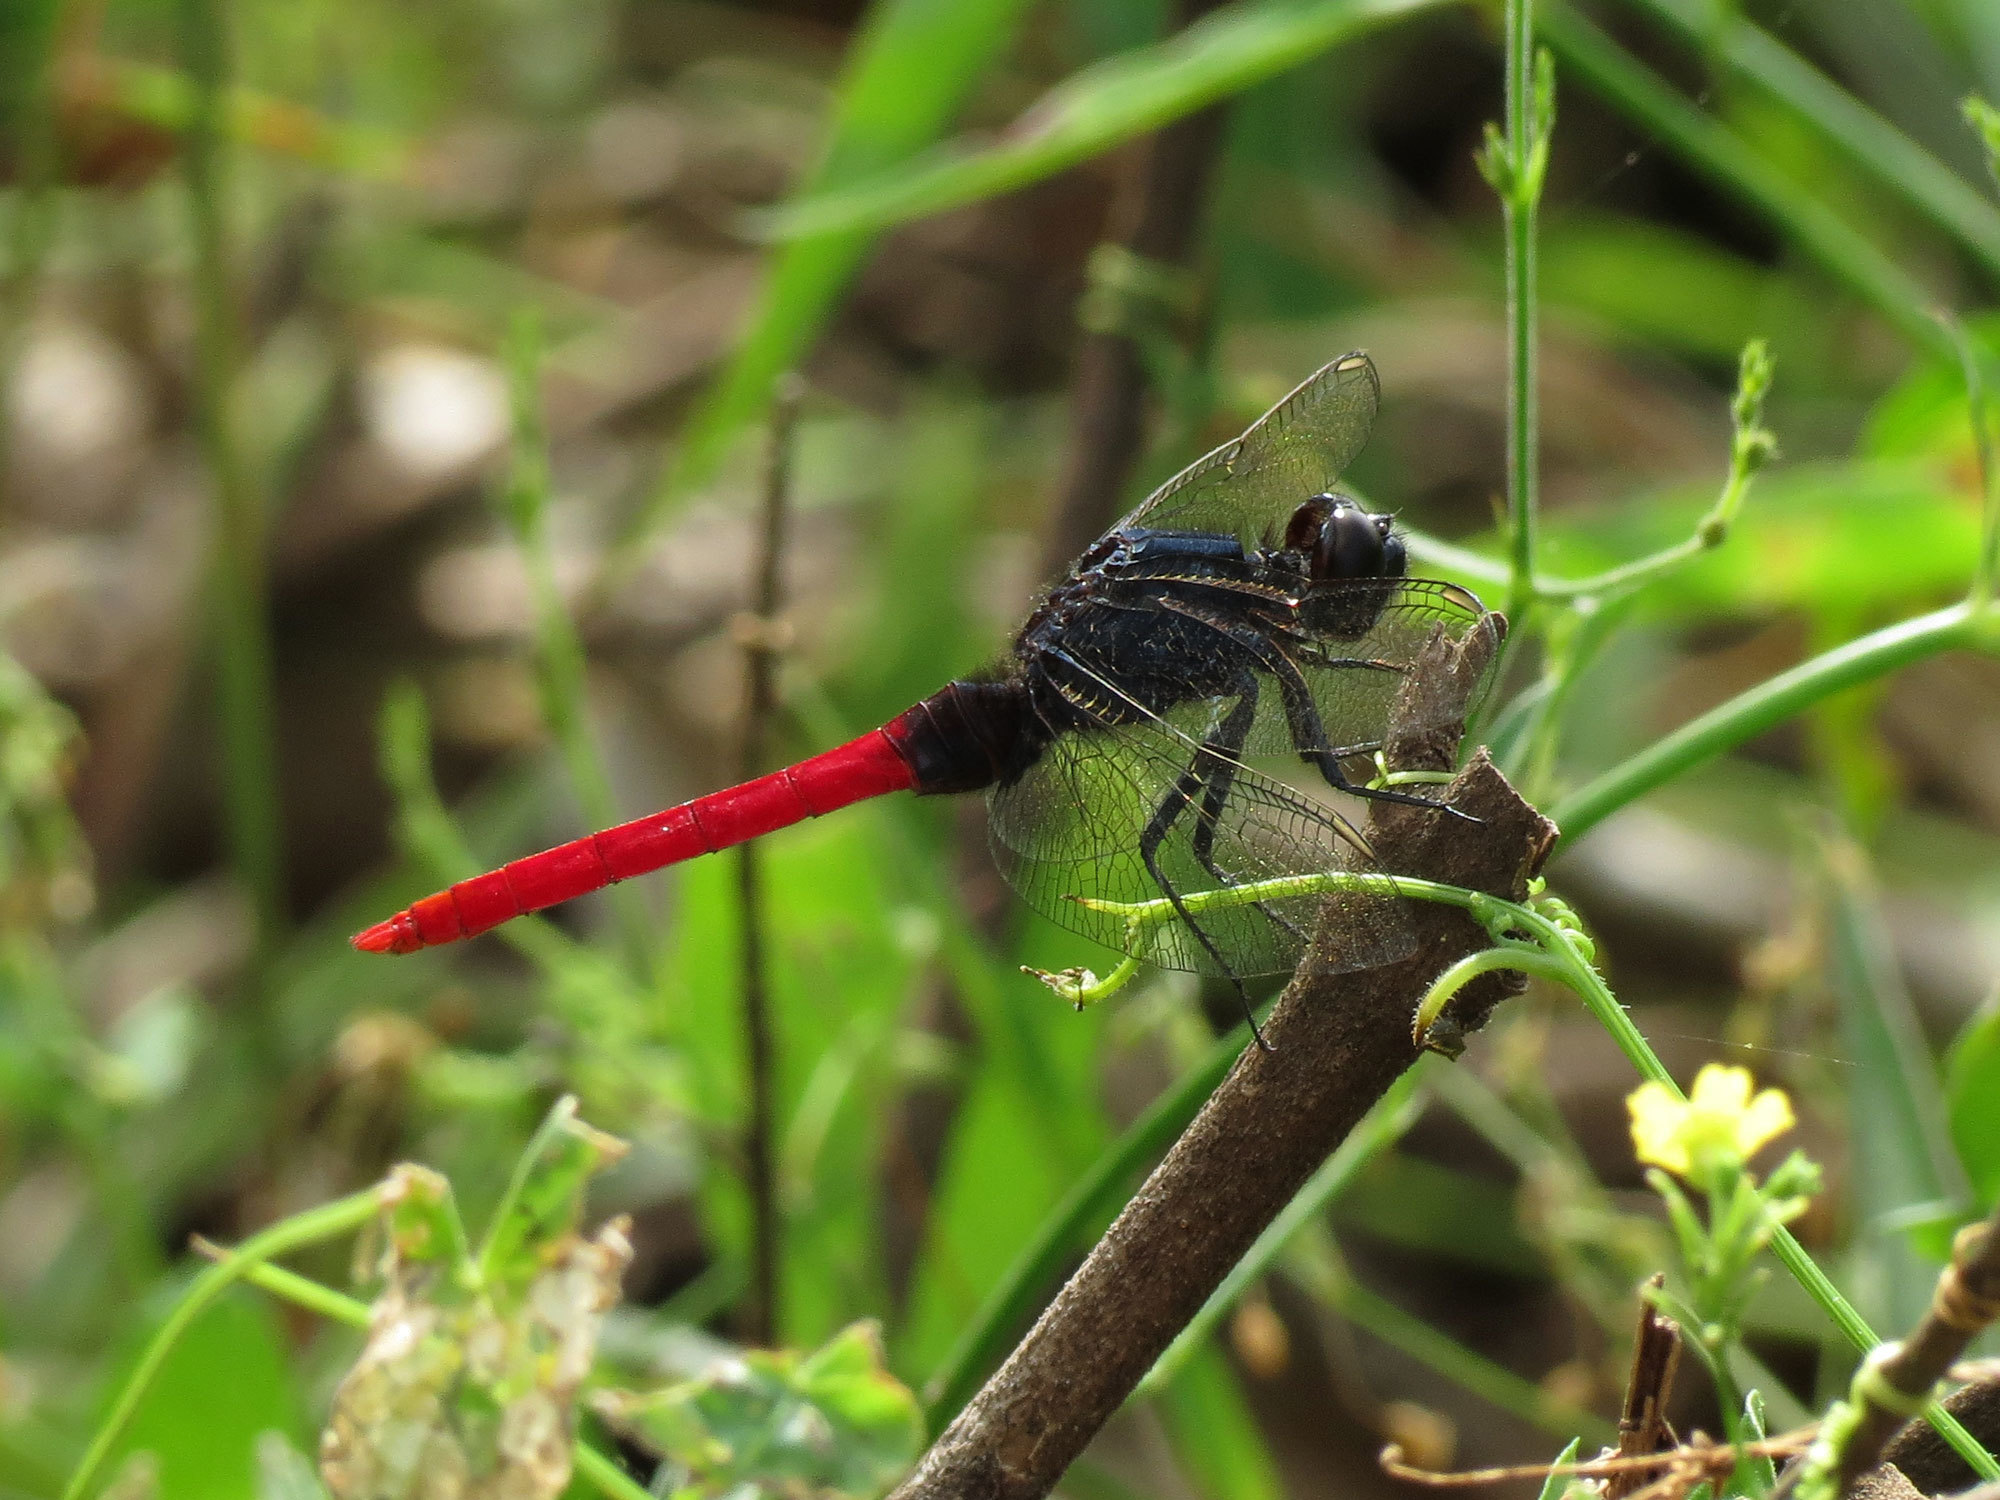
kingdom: Animalia
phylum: Arthropoda
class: Insecta
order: Odonata
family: Libellulidae
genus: Erythemis
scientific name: Erythemis peruviana
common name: Flame-tailed pondhawk
